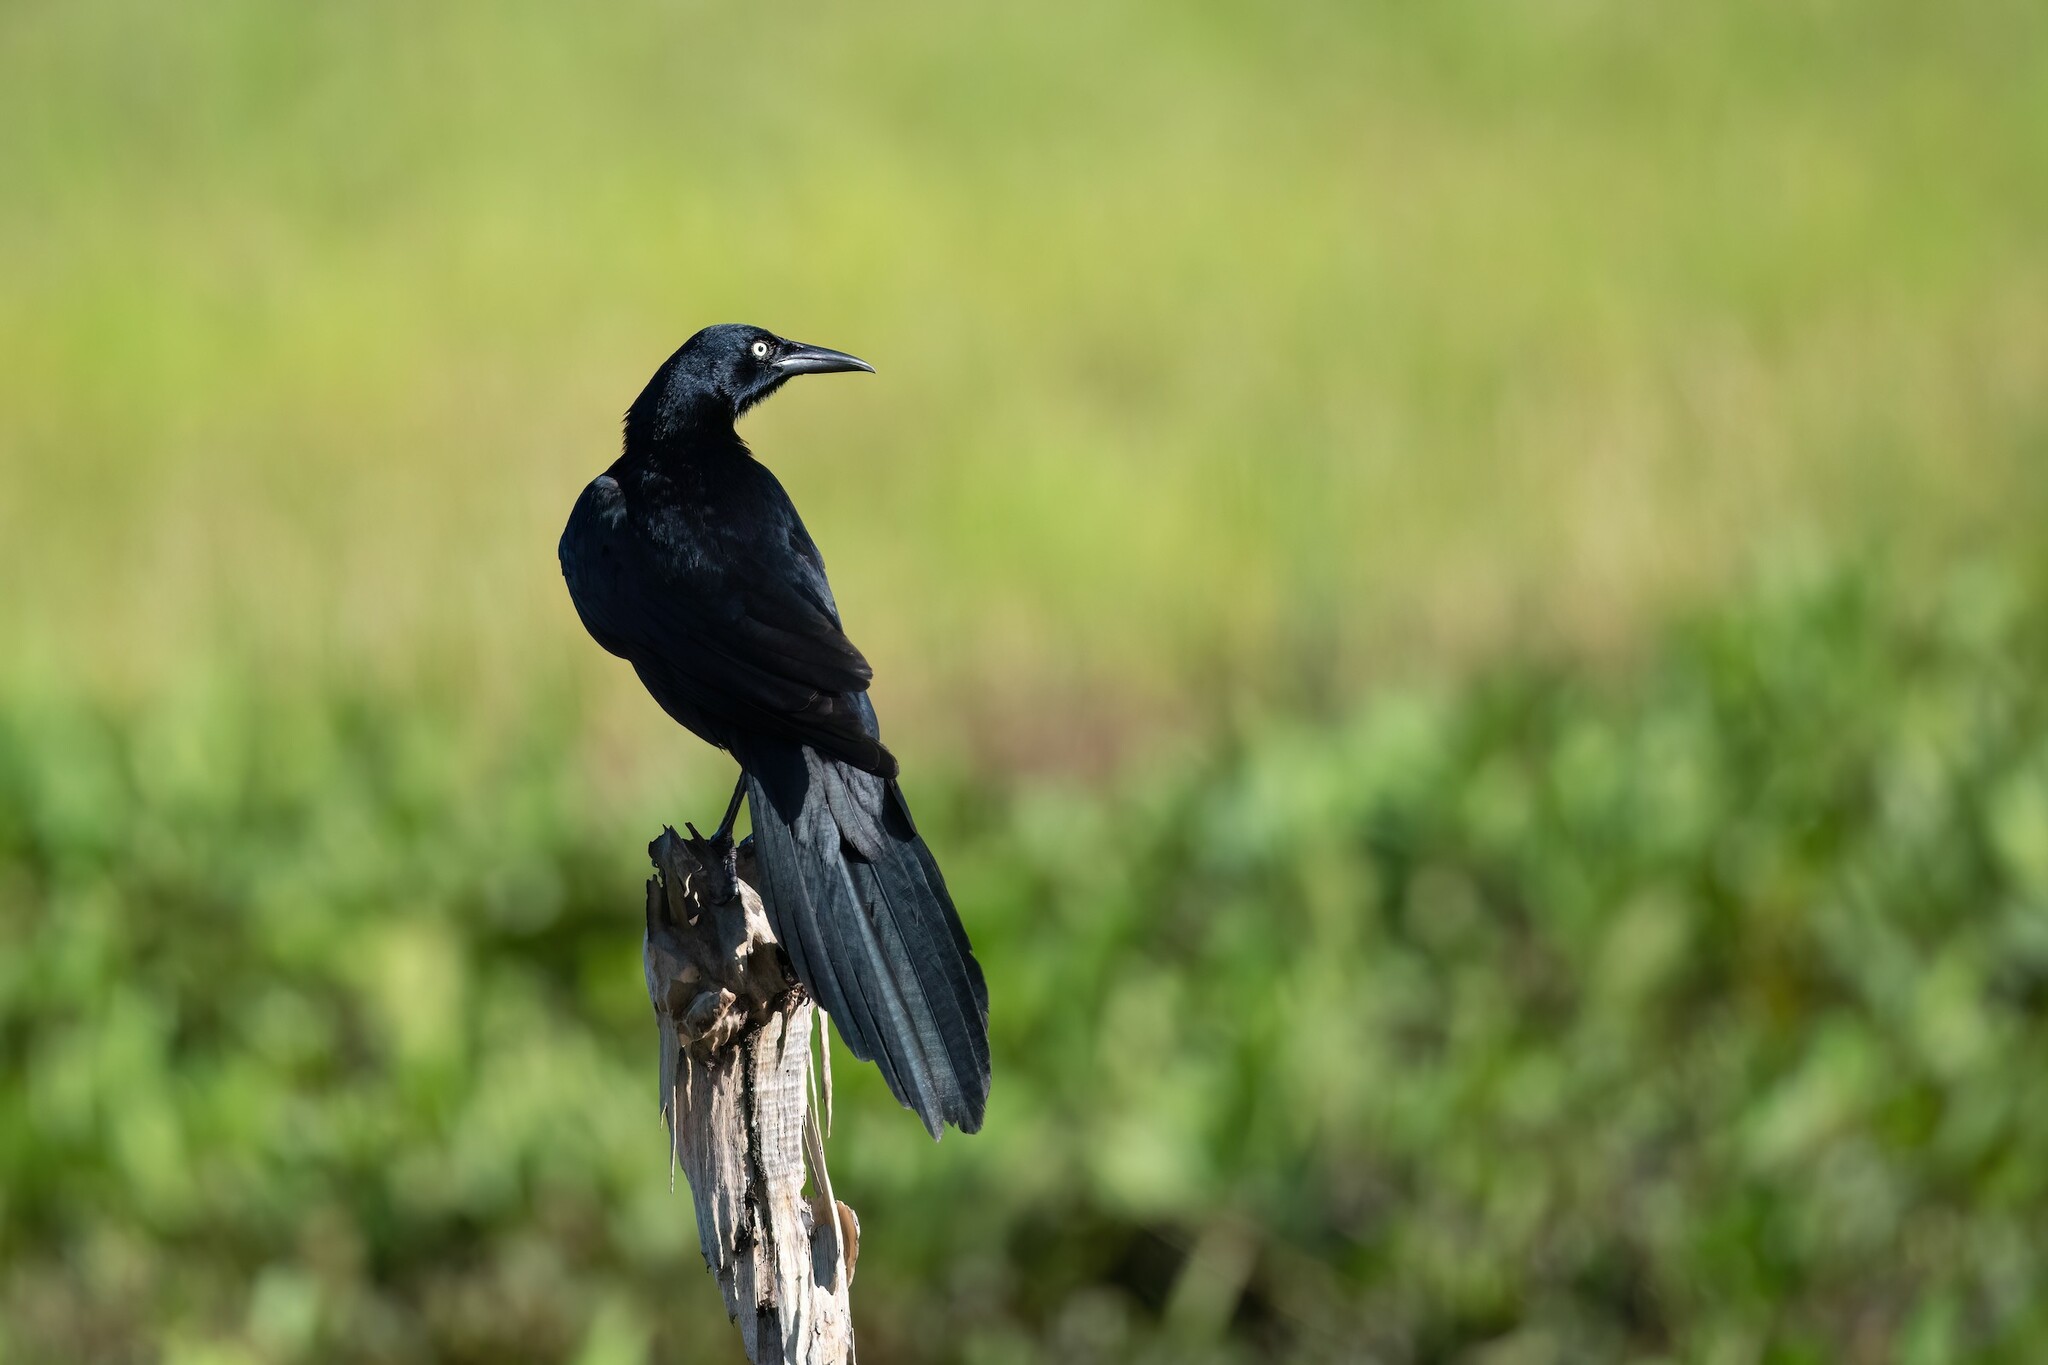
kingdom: Animalia
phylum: Chordata
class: Aves
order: Passeriformes
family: Icteridae
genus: Quiscalus
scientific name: Quiscalus mexicanus
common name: Great-tailed grackle
